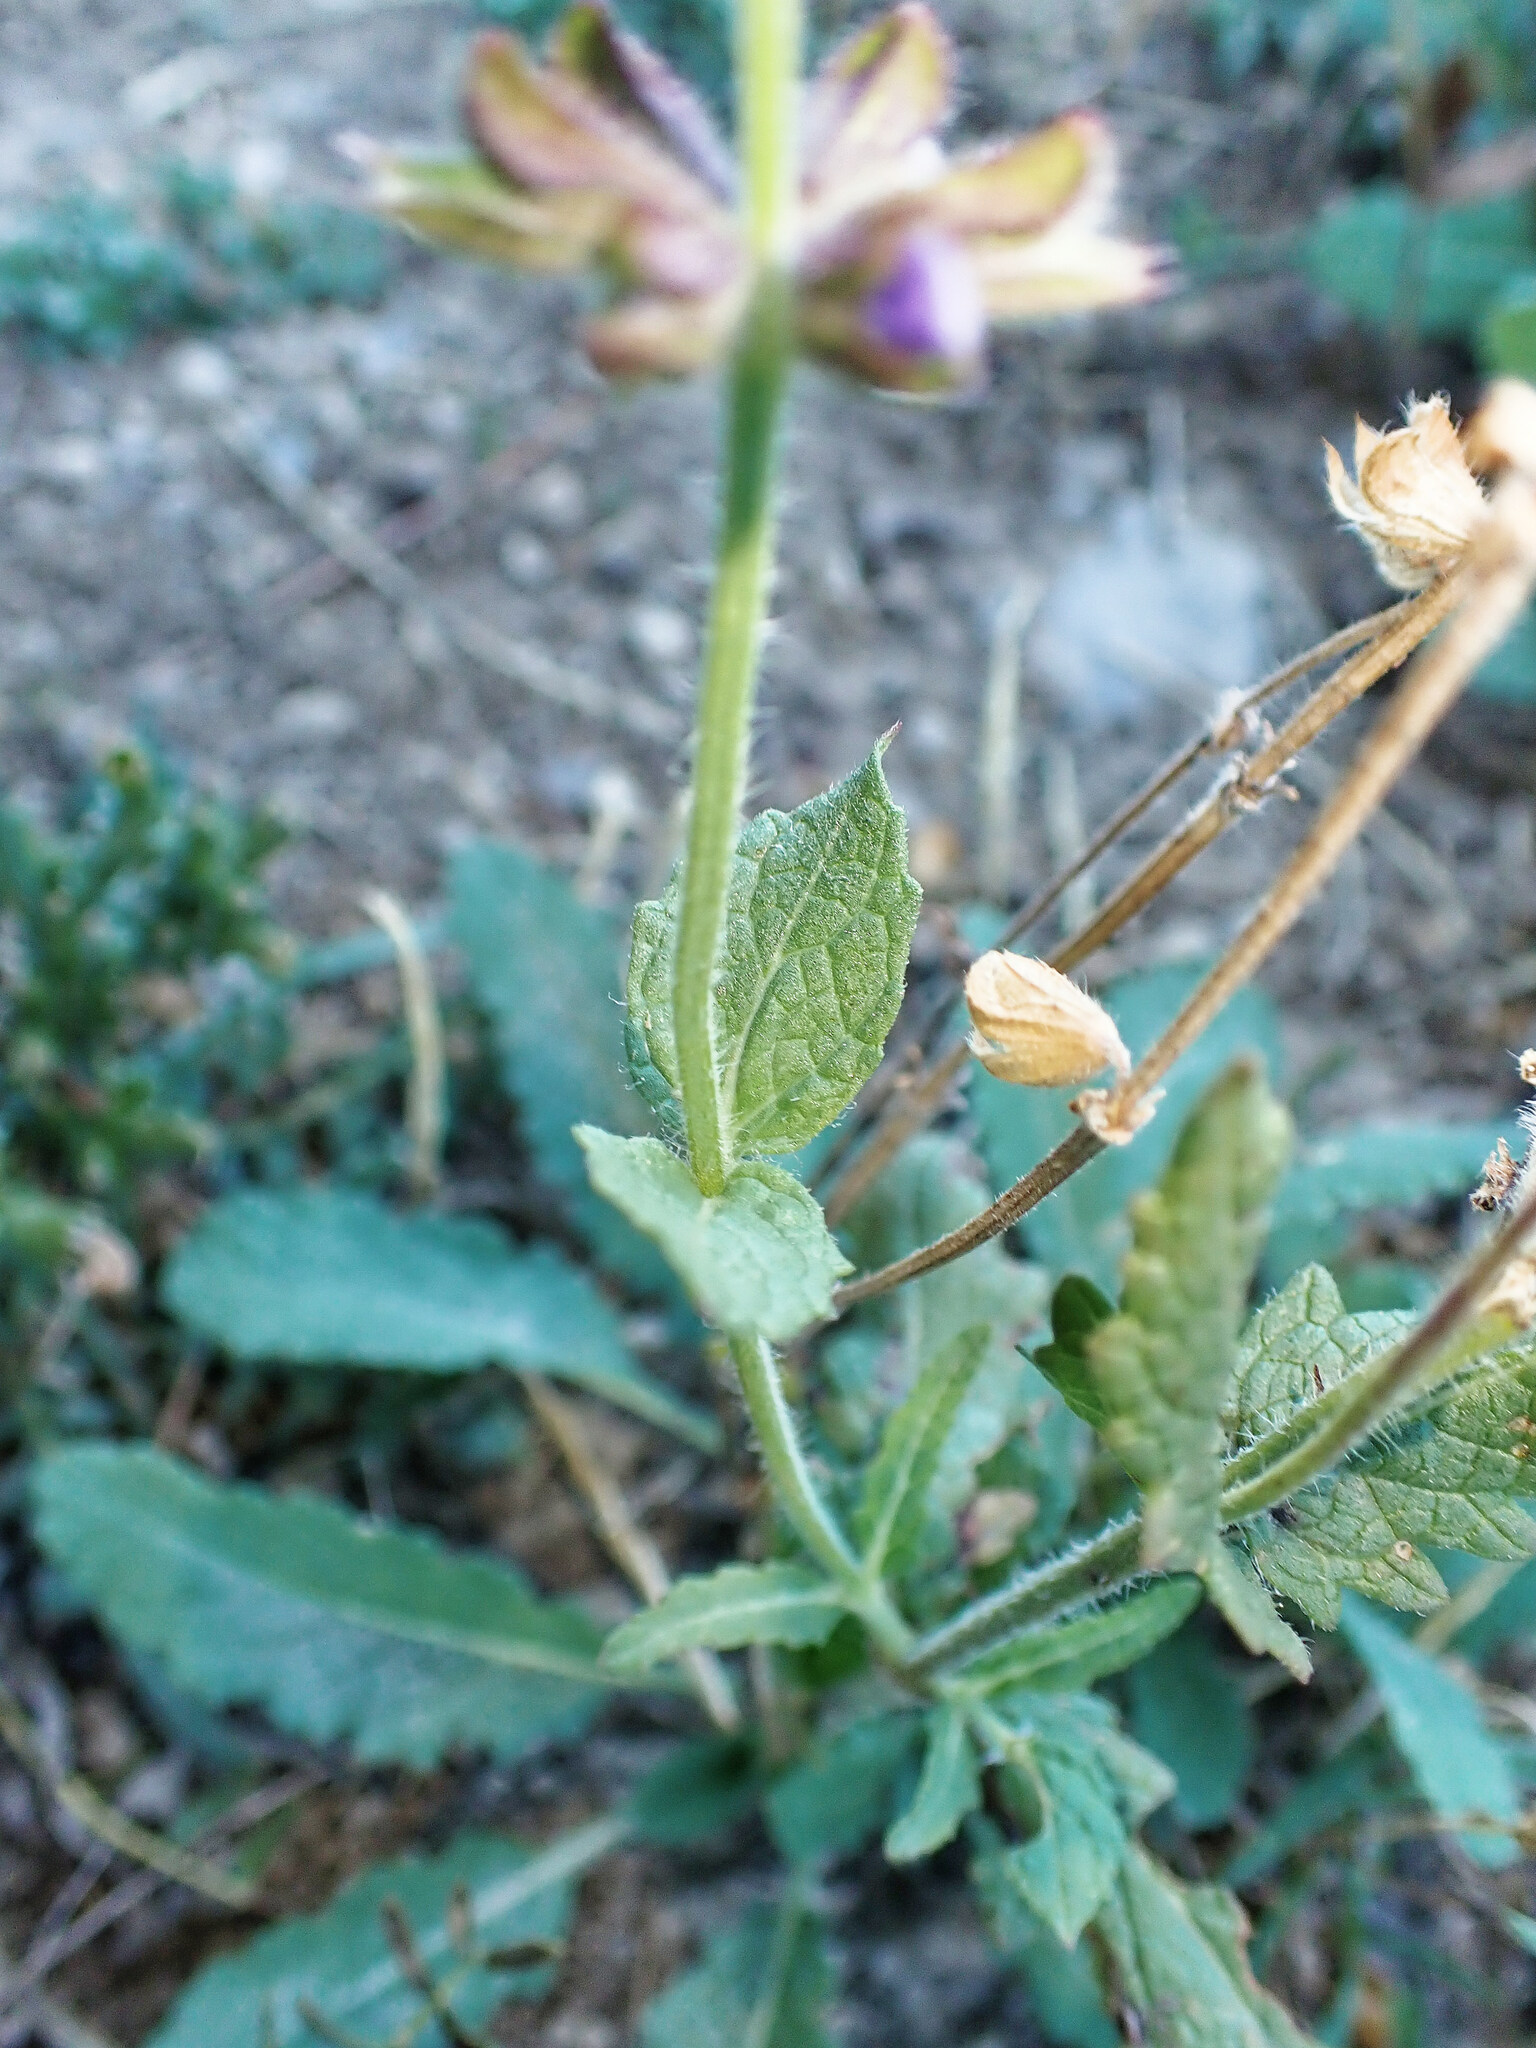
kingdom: Plantae
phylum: Tracheophyta
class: Magnoliopsida
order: Lamiales
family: Lamiaceae
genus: Salvia
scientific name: Salvia verbenaca
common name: Wild clary
